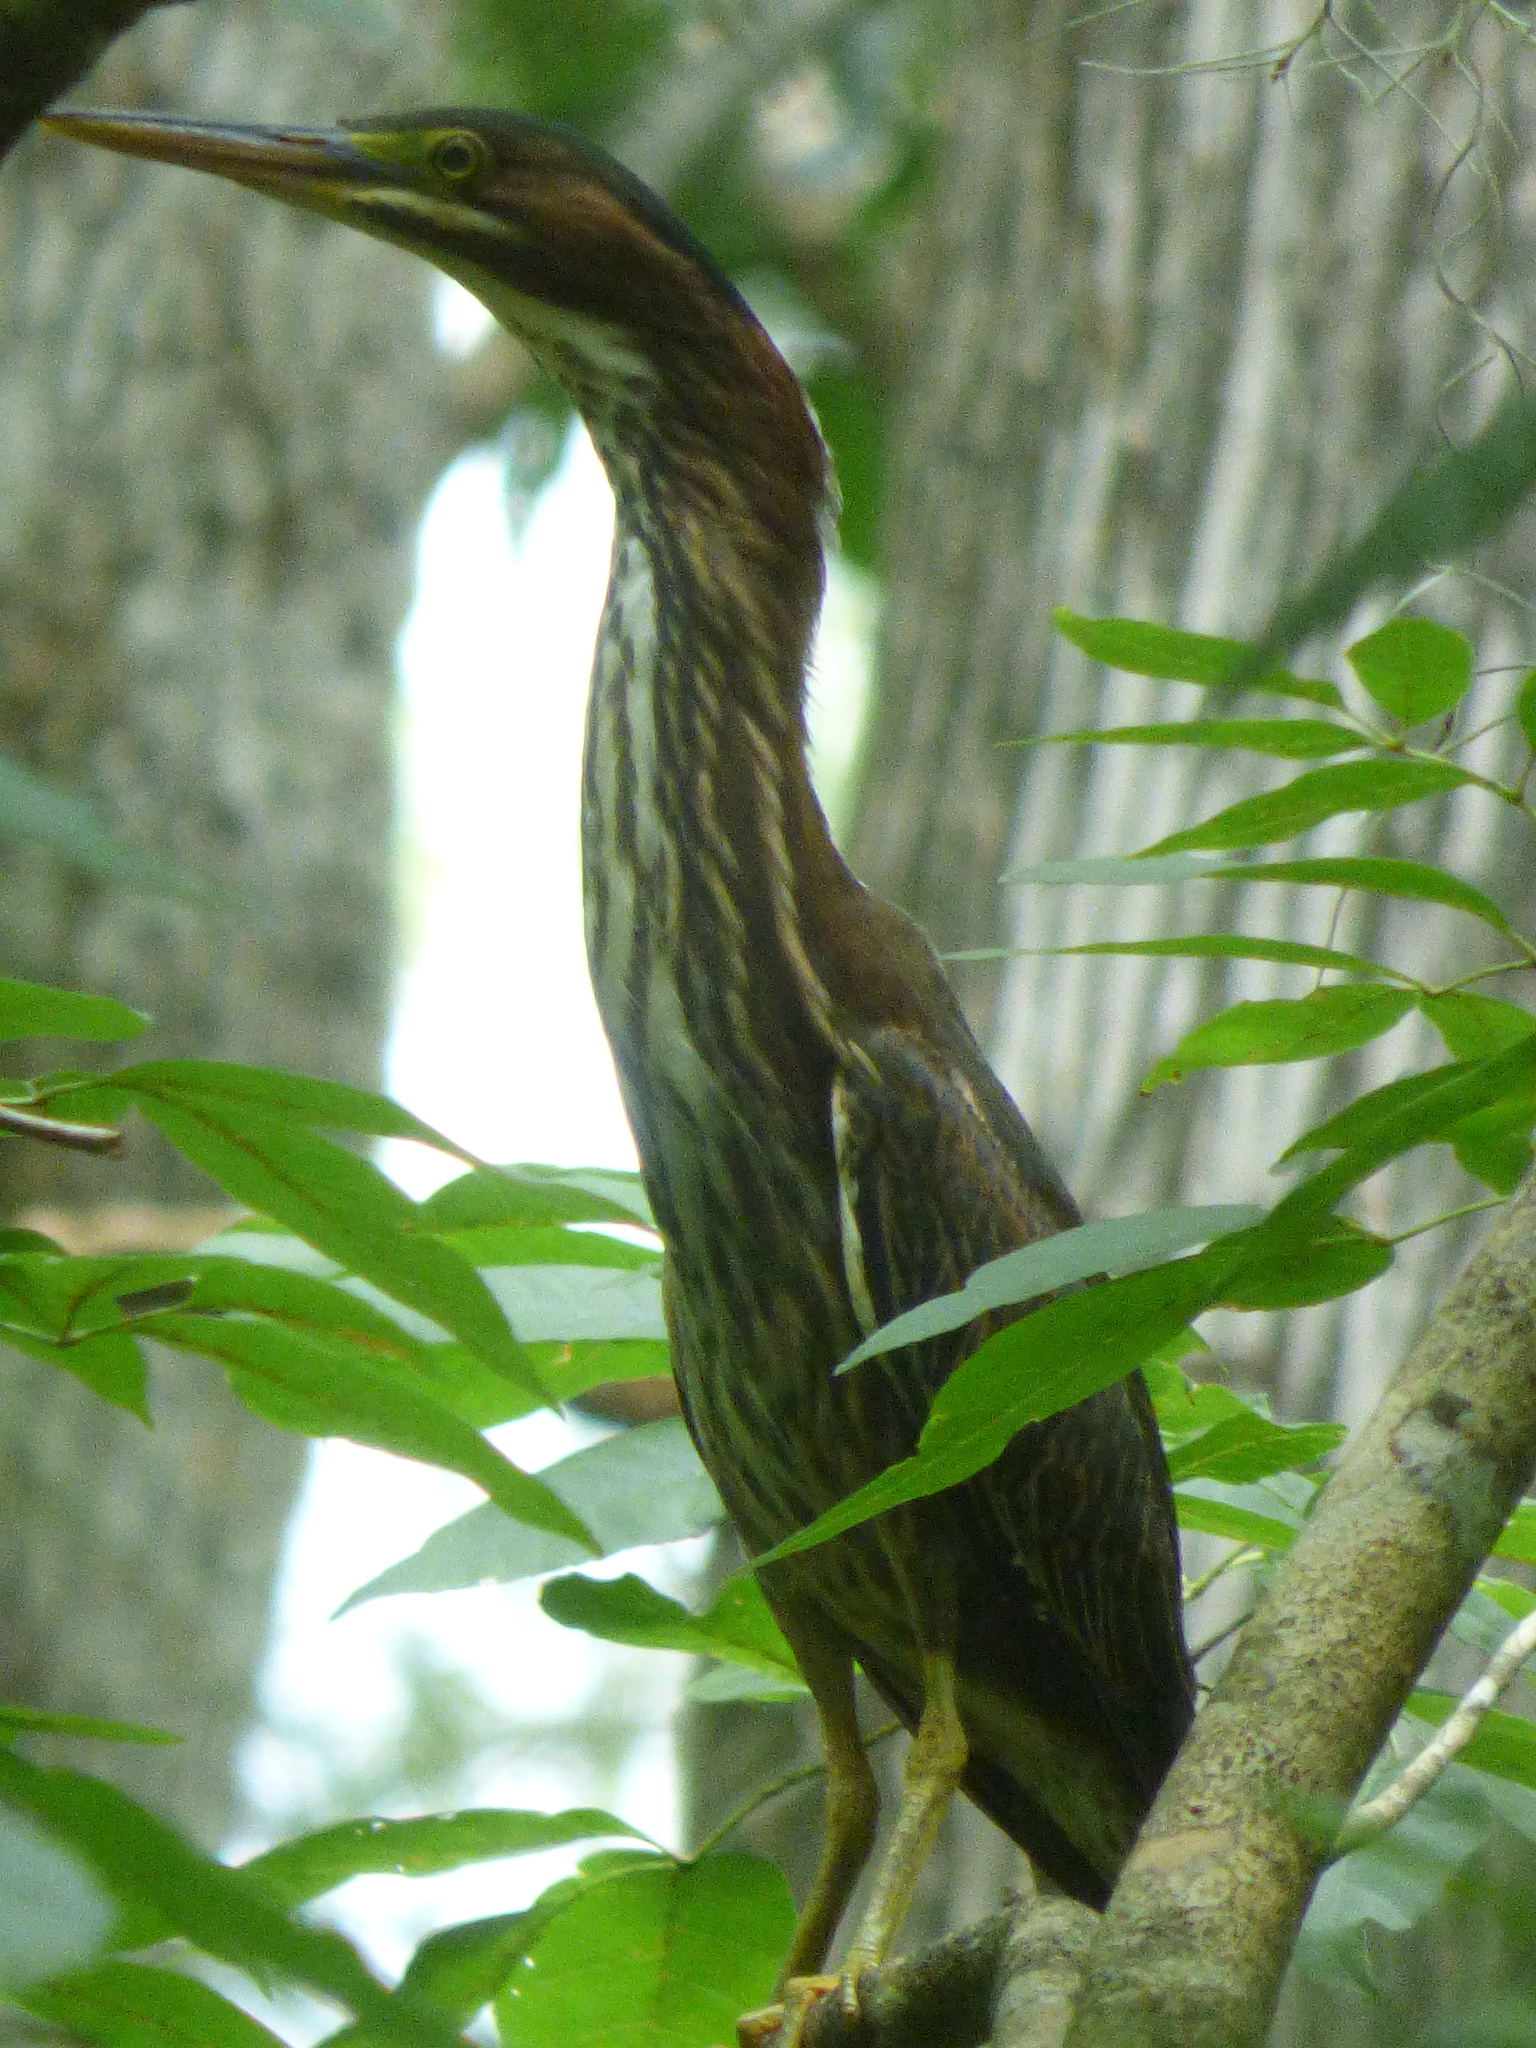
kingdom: Animalia
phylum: Chordata
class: Aves
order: Pelecaniformes
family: Ardeidae
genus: Butorides
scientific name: Butorides virescens
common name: Green heron
